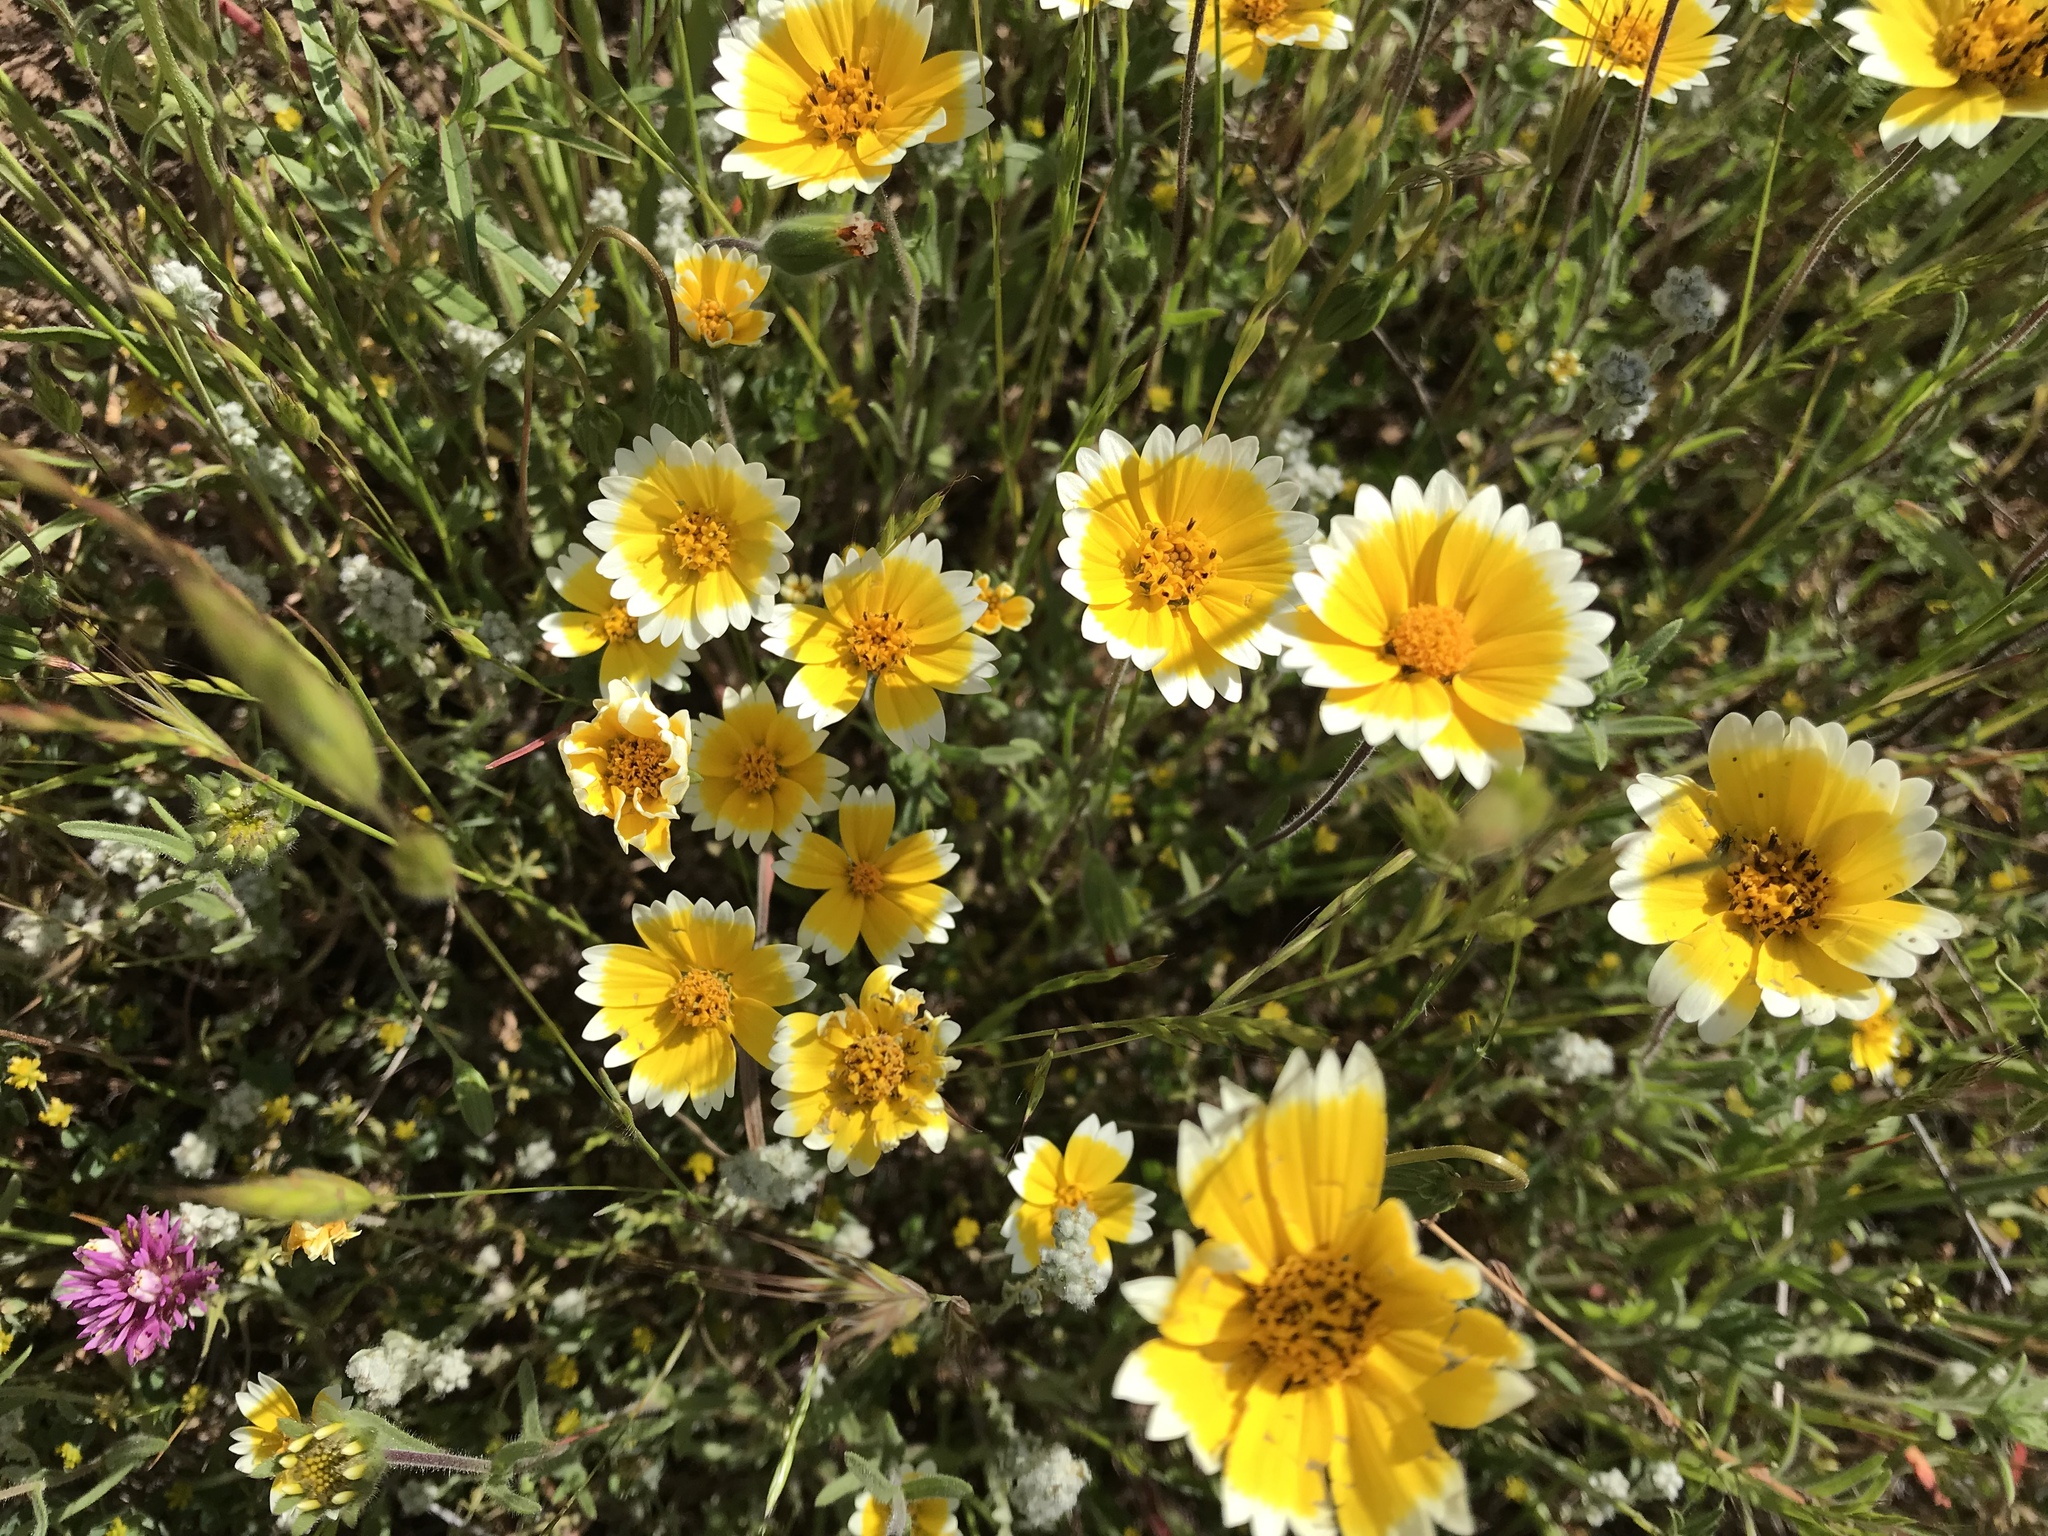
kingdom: Plantae
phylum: Tracheophyta
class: Magnoliopsida
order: Asterales
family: Asteraceae
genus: Layia
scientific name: Layia platyglossa
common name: Tidy-tips
